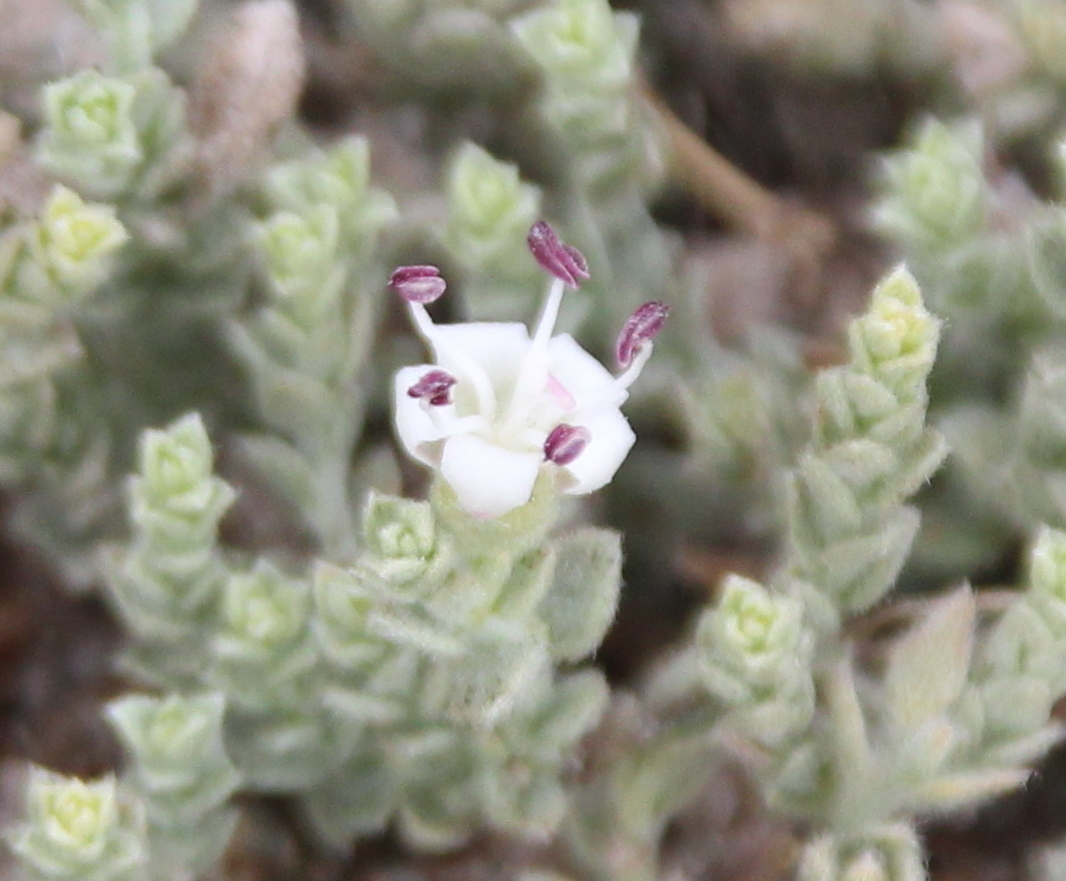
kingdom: Plantae
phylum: Tracheophyta
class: Magnoliopsida
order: Solanales
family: Convolvulaceae
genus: Cressa
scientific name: Cressa truxillensis
